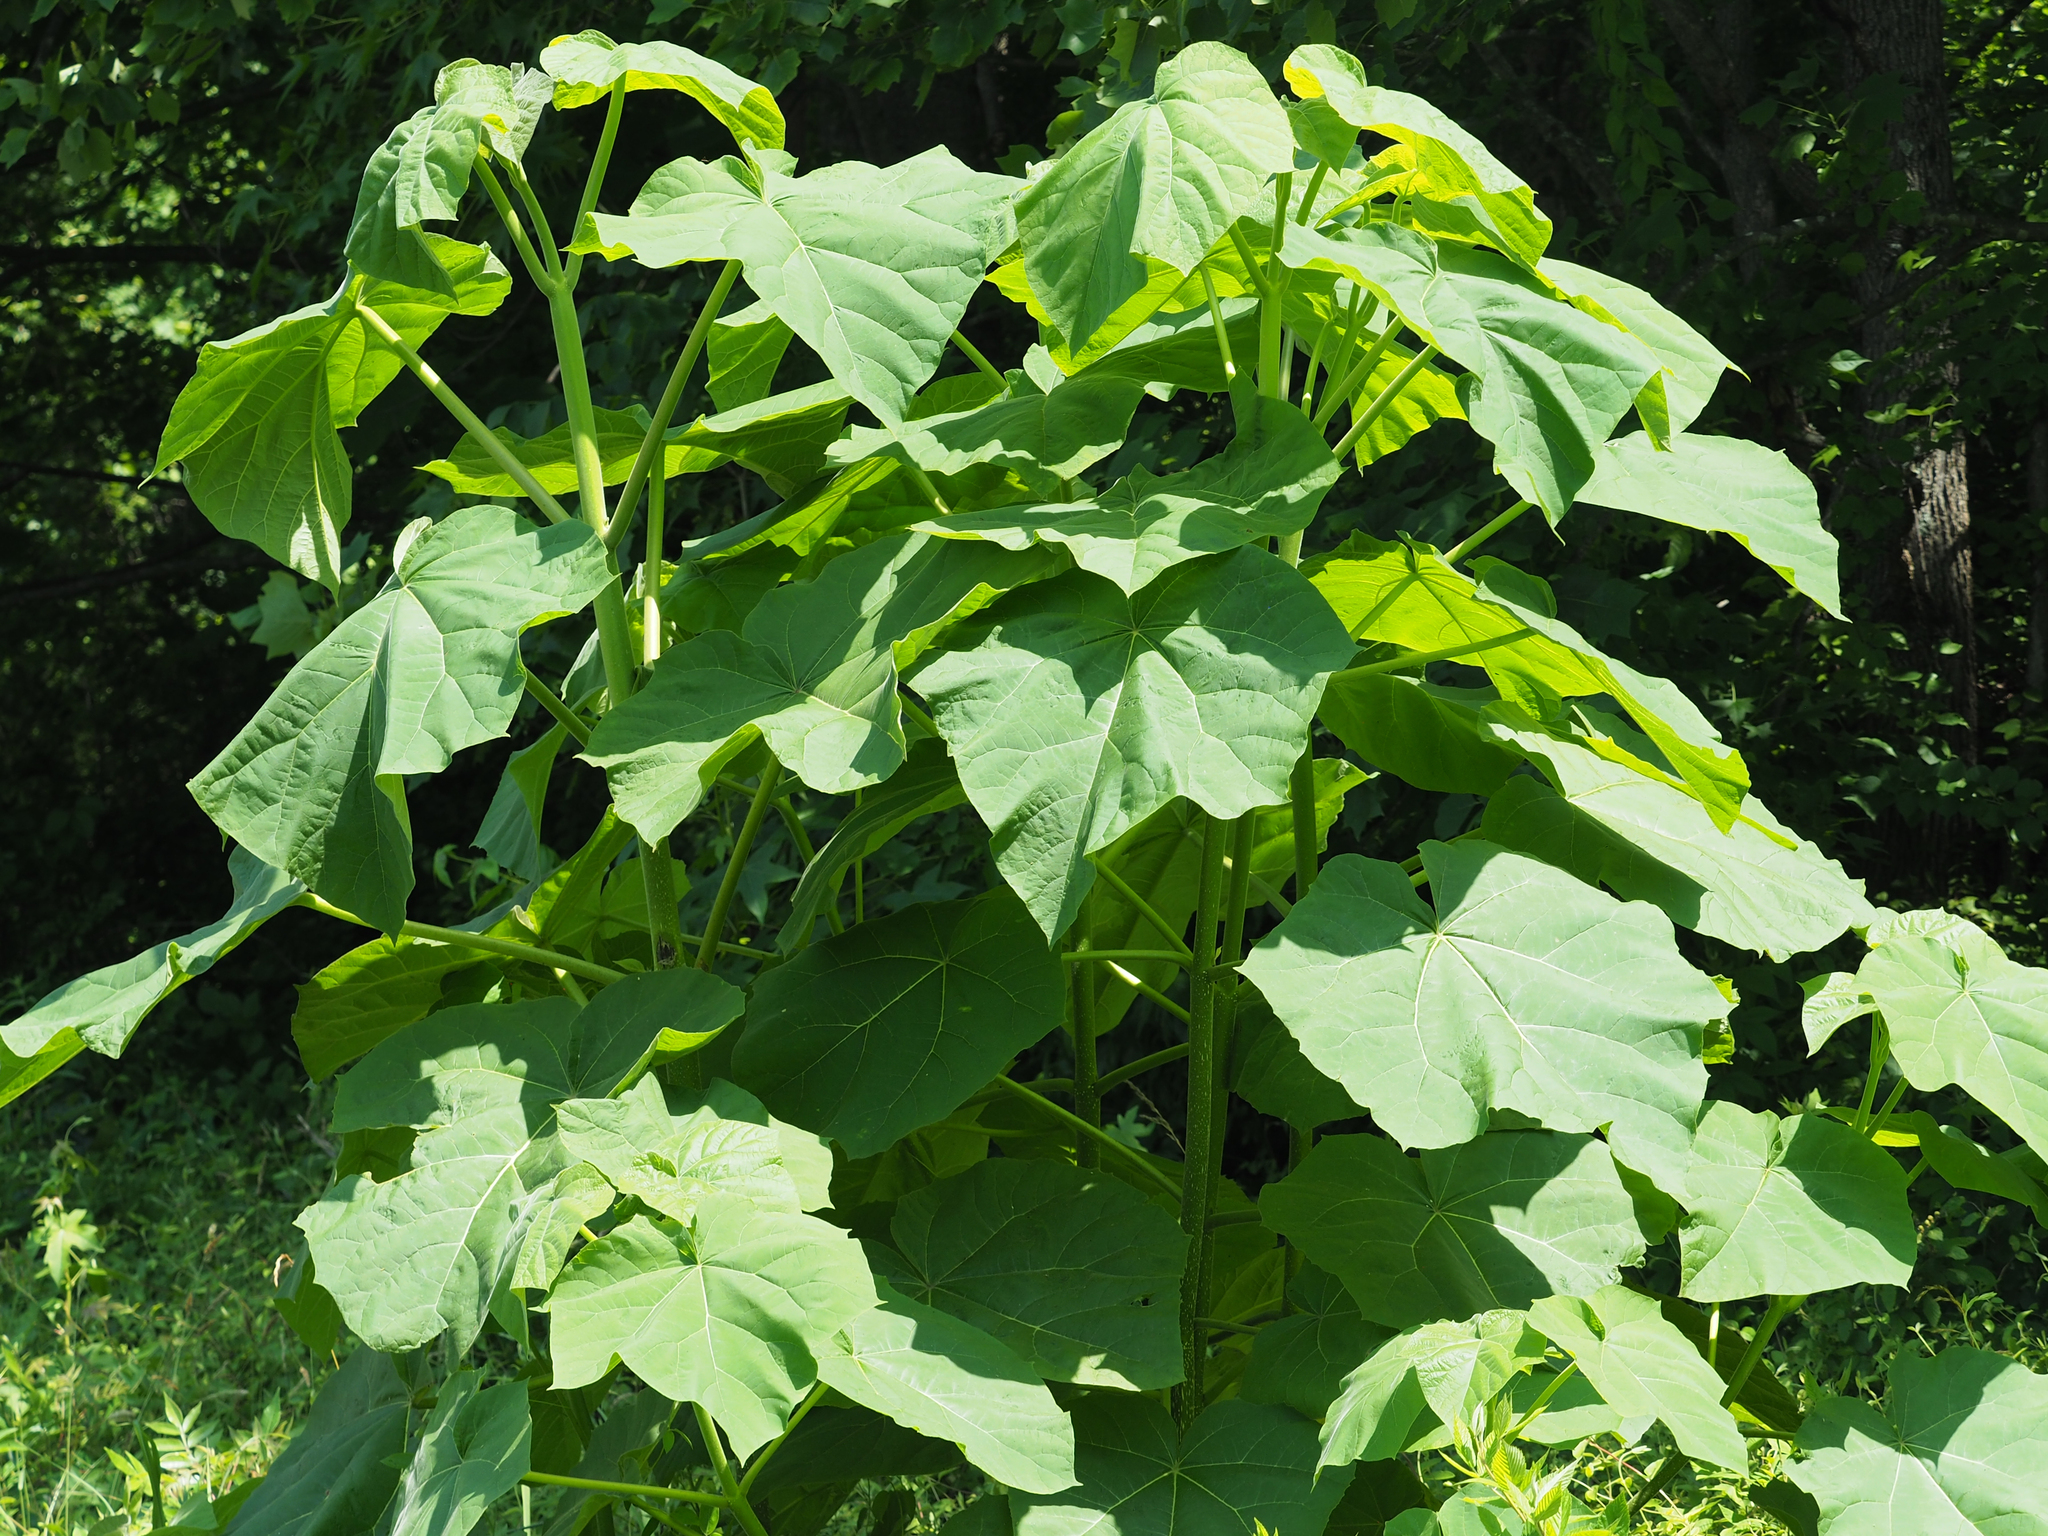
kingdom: Plantae
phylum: Tracheophyta
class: Magnoliopsida
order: Lamiales
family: Paulowniaceae
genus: Paulownia
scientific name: Paulownia tomentosa
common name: Foxglove-tree
